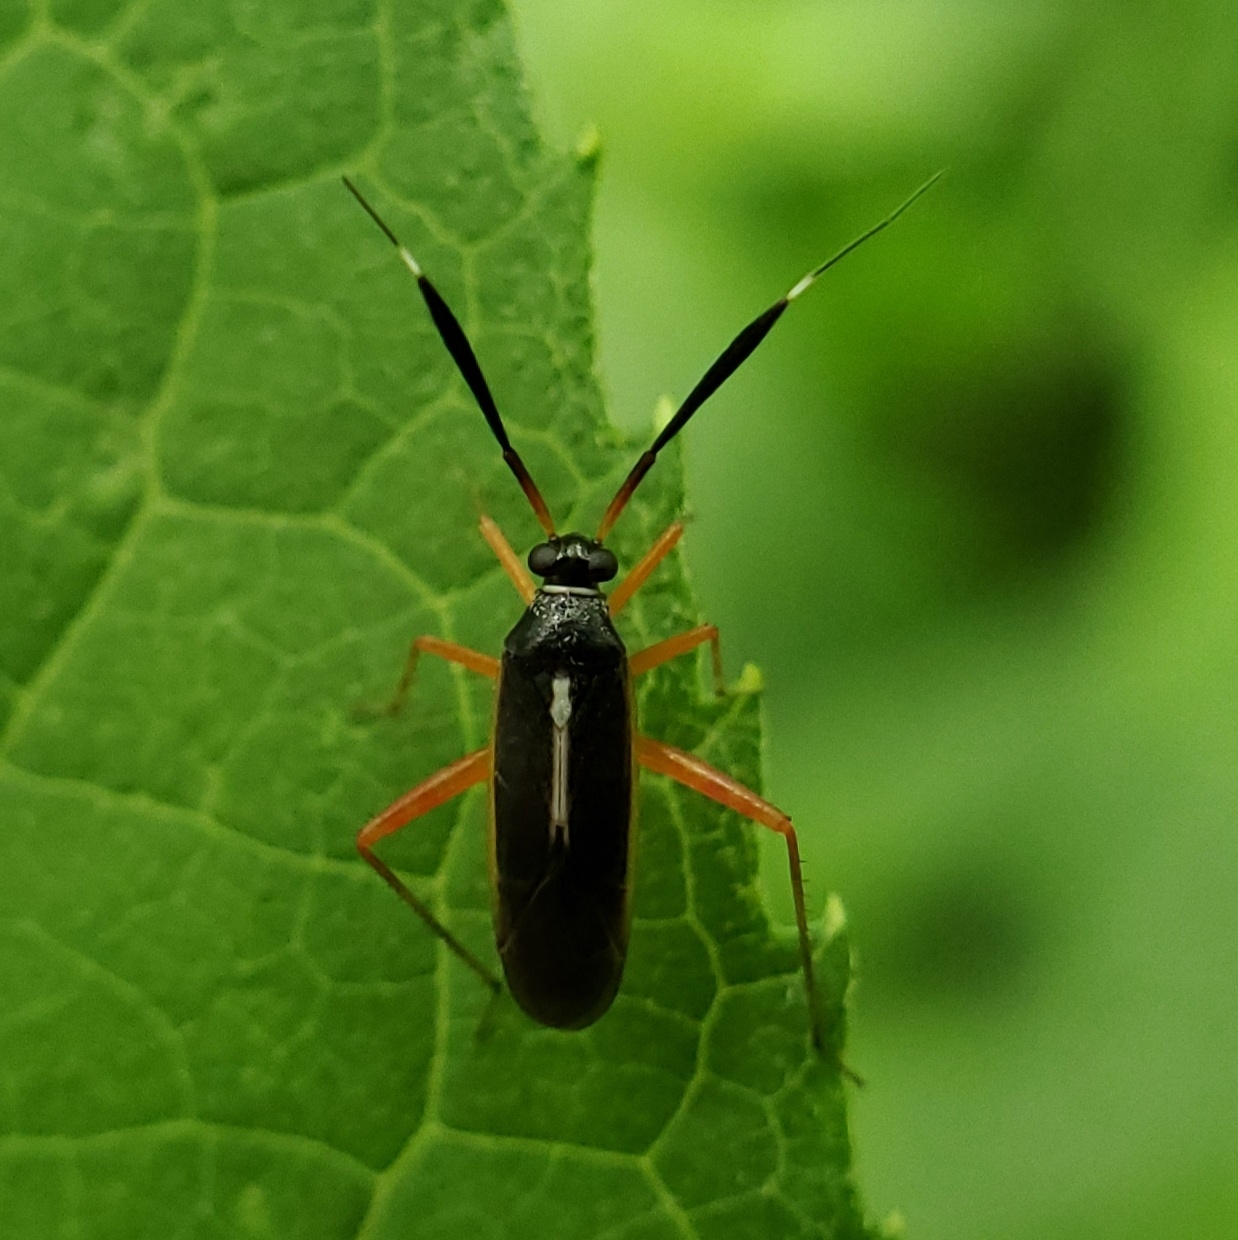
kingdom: Animalia
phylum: Arthropoda
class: Insecta
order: Hemiptera
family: Miridae
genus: Garganus
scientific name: Garganus fusiformis
